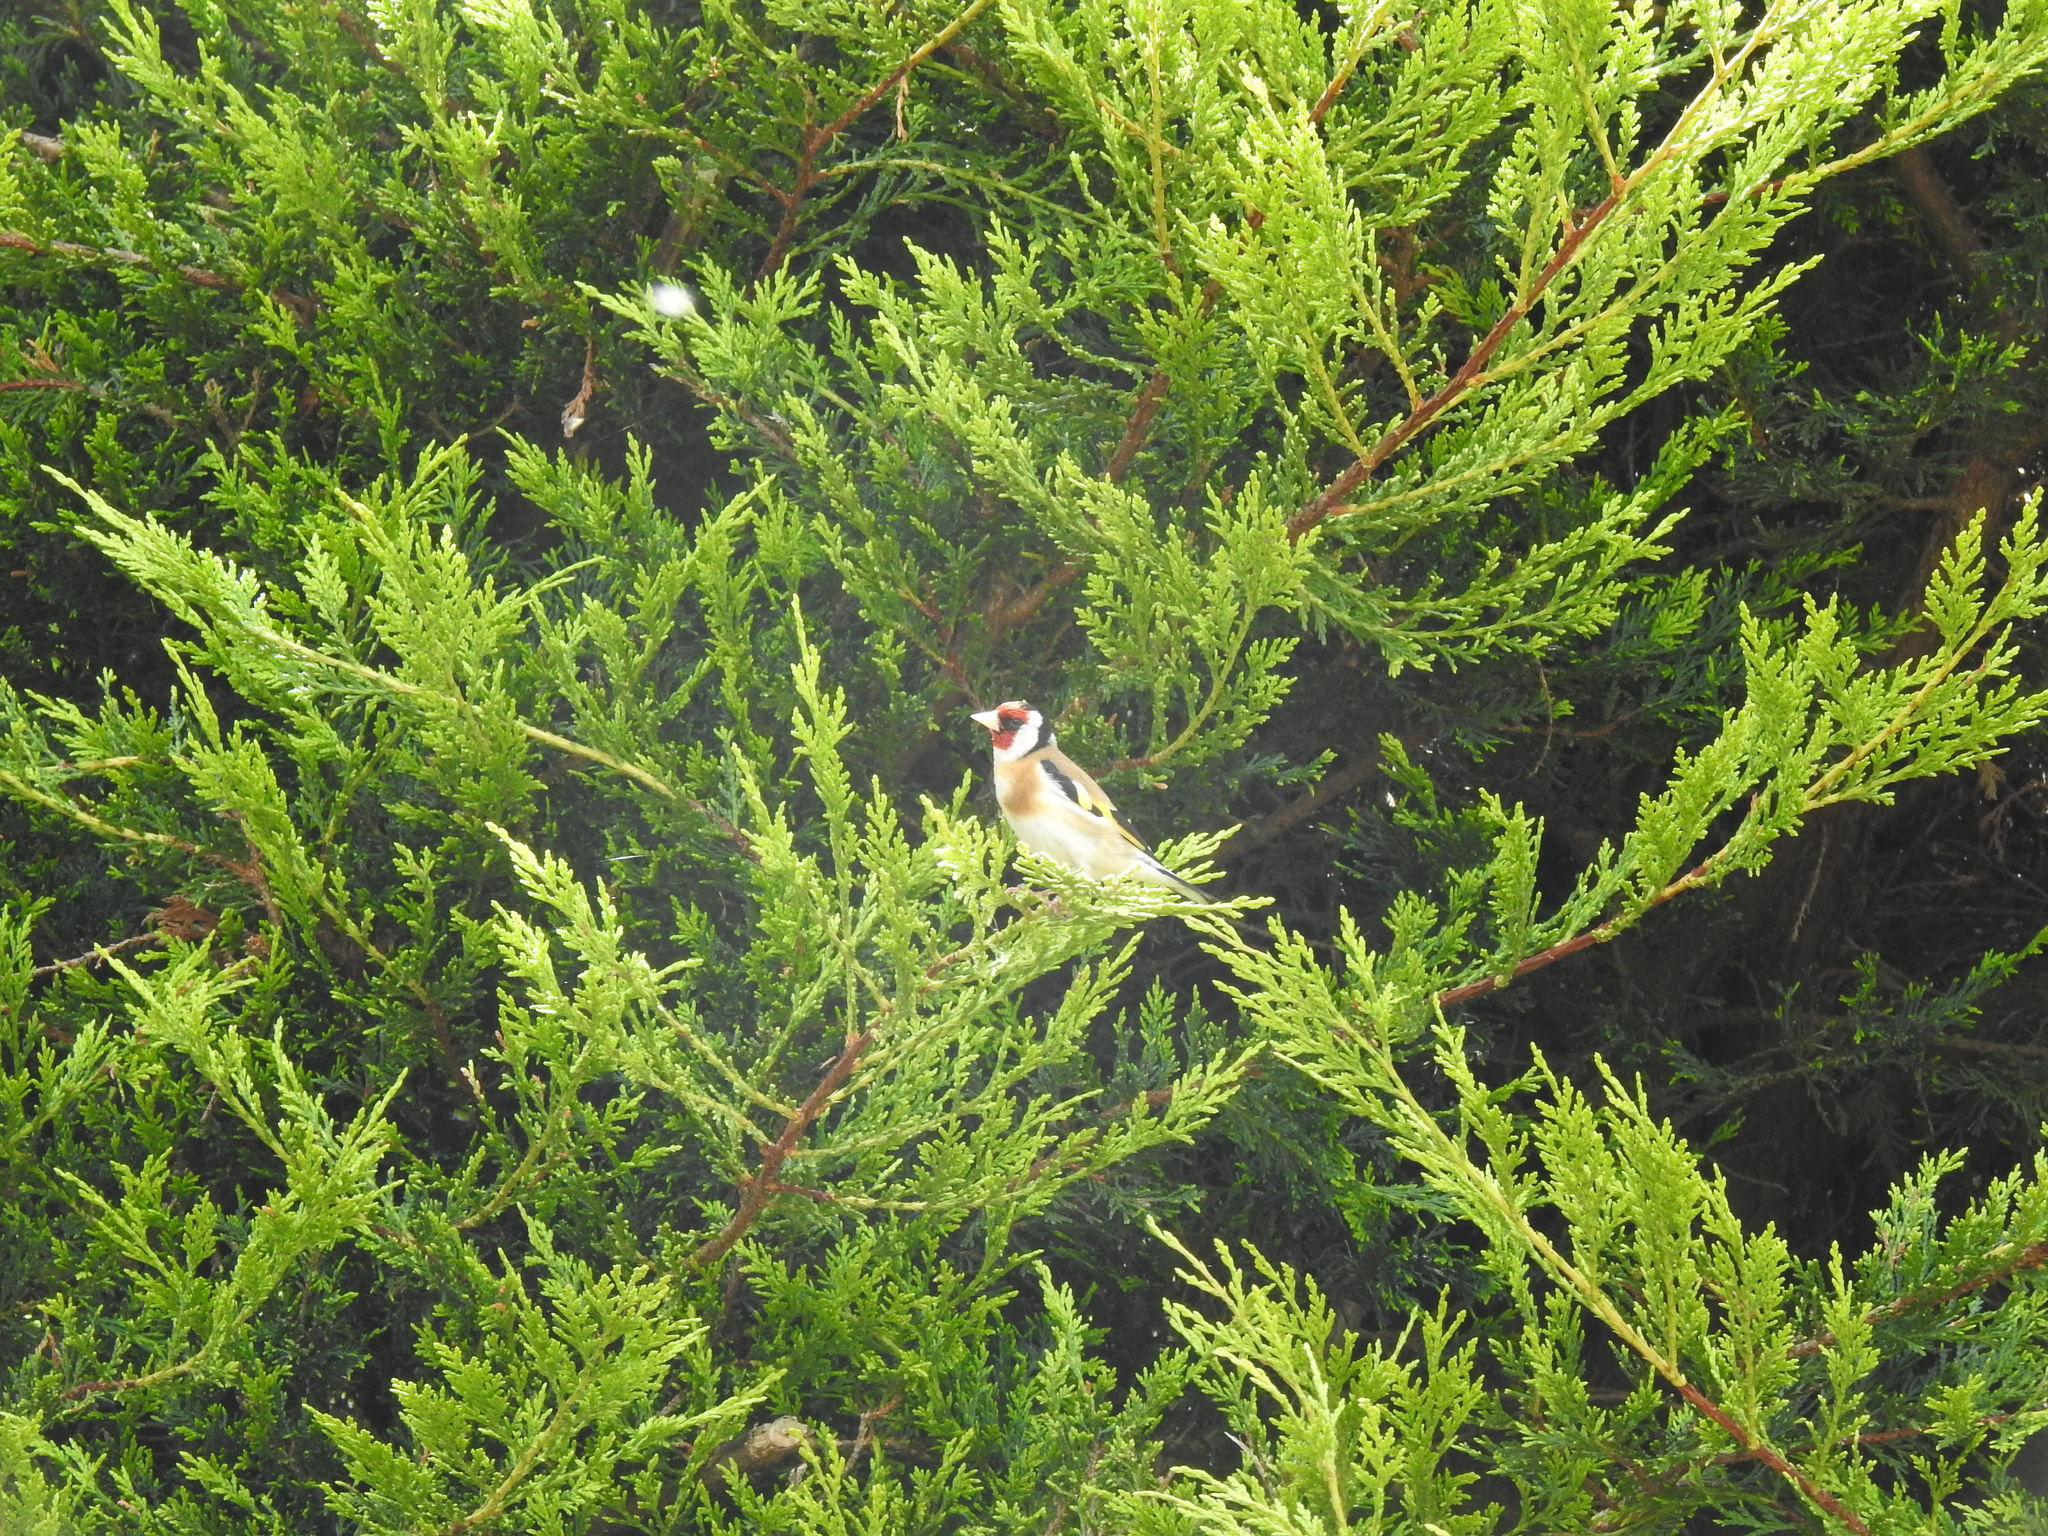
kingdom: Animalia
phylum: Chordata
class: Aves
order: Passeriformes
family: Fringillidae
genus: Carduelis
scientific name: Carduelis carduelis
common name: European goldfinch
